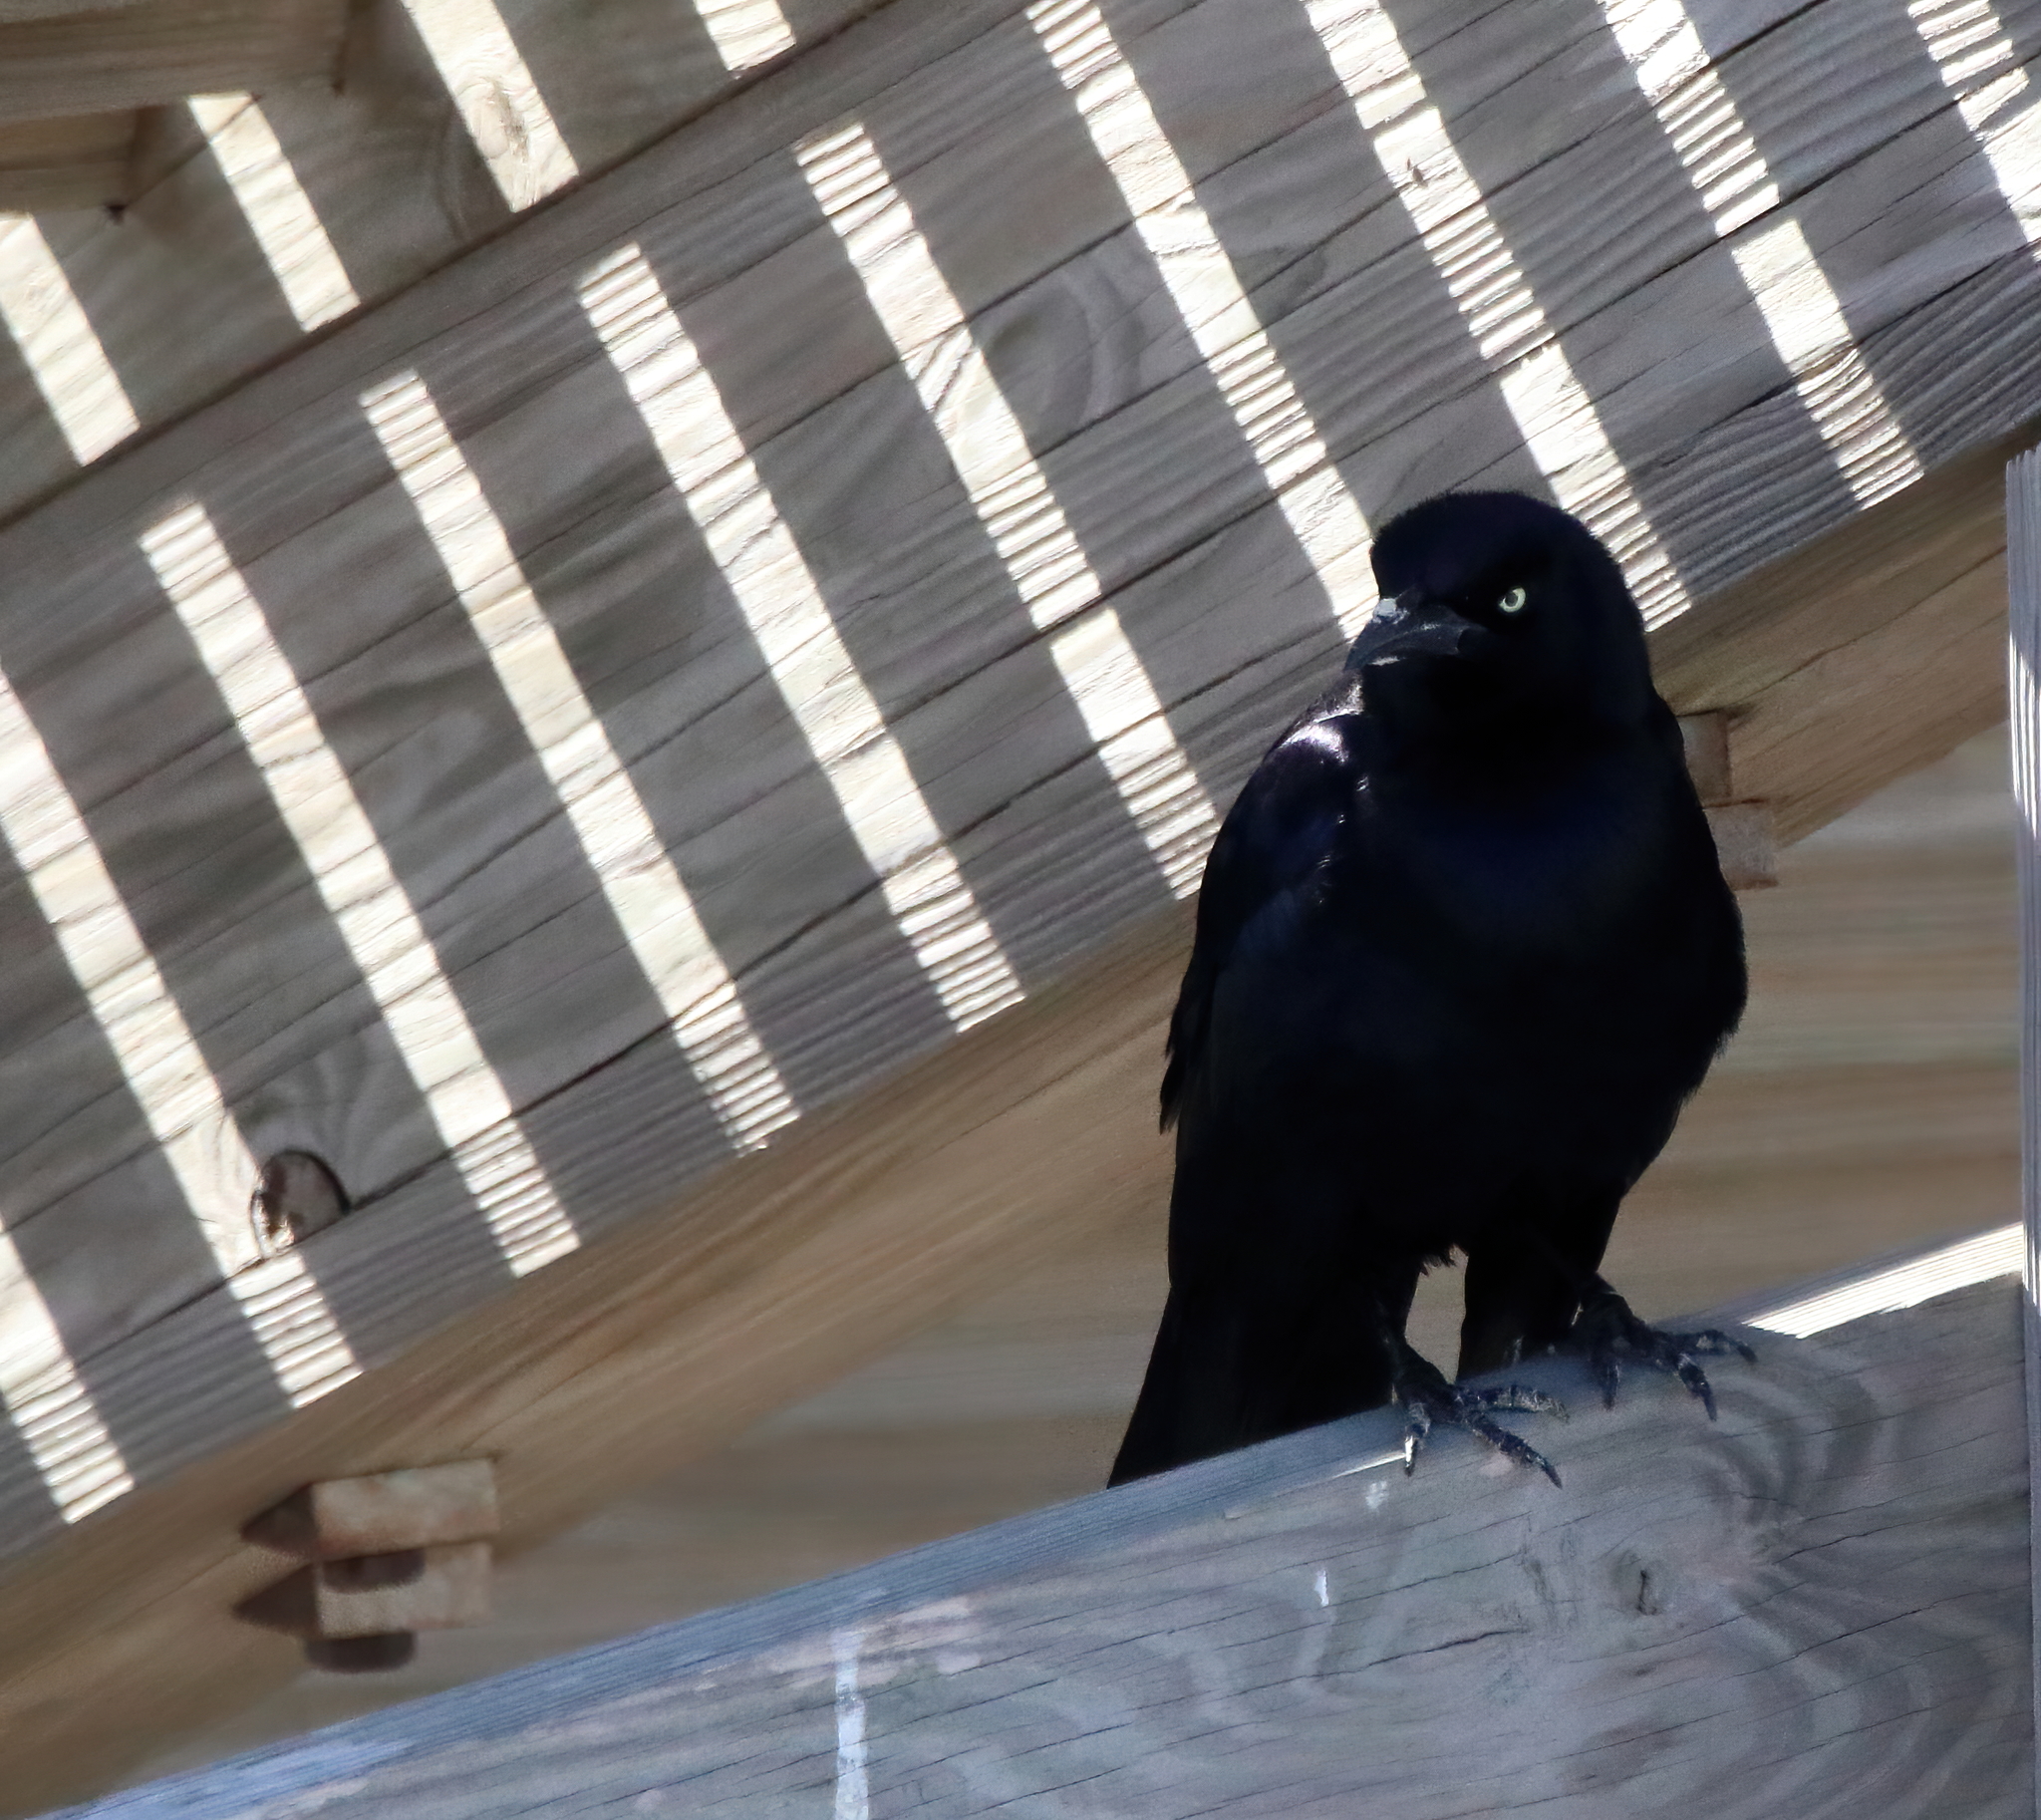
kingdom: Animalia
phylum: Chordata
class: Aves
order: Passeriformes
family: Icteridae
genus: Quiscalus
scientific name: Quiscalus mexicanus
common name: Great-tailed grackle
